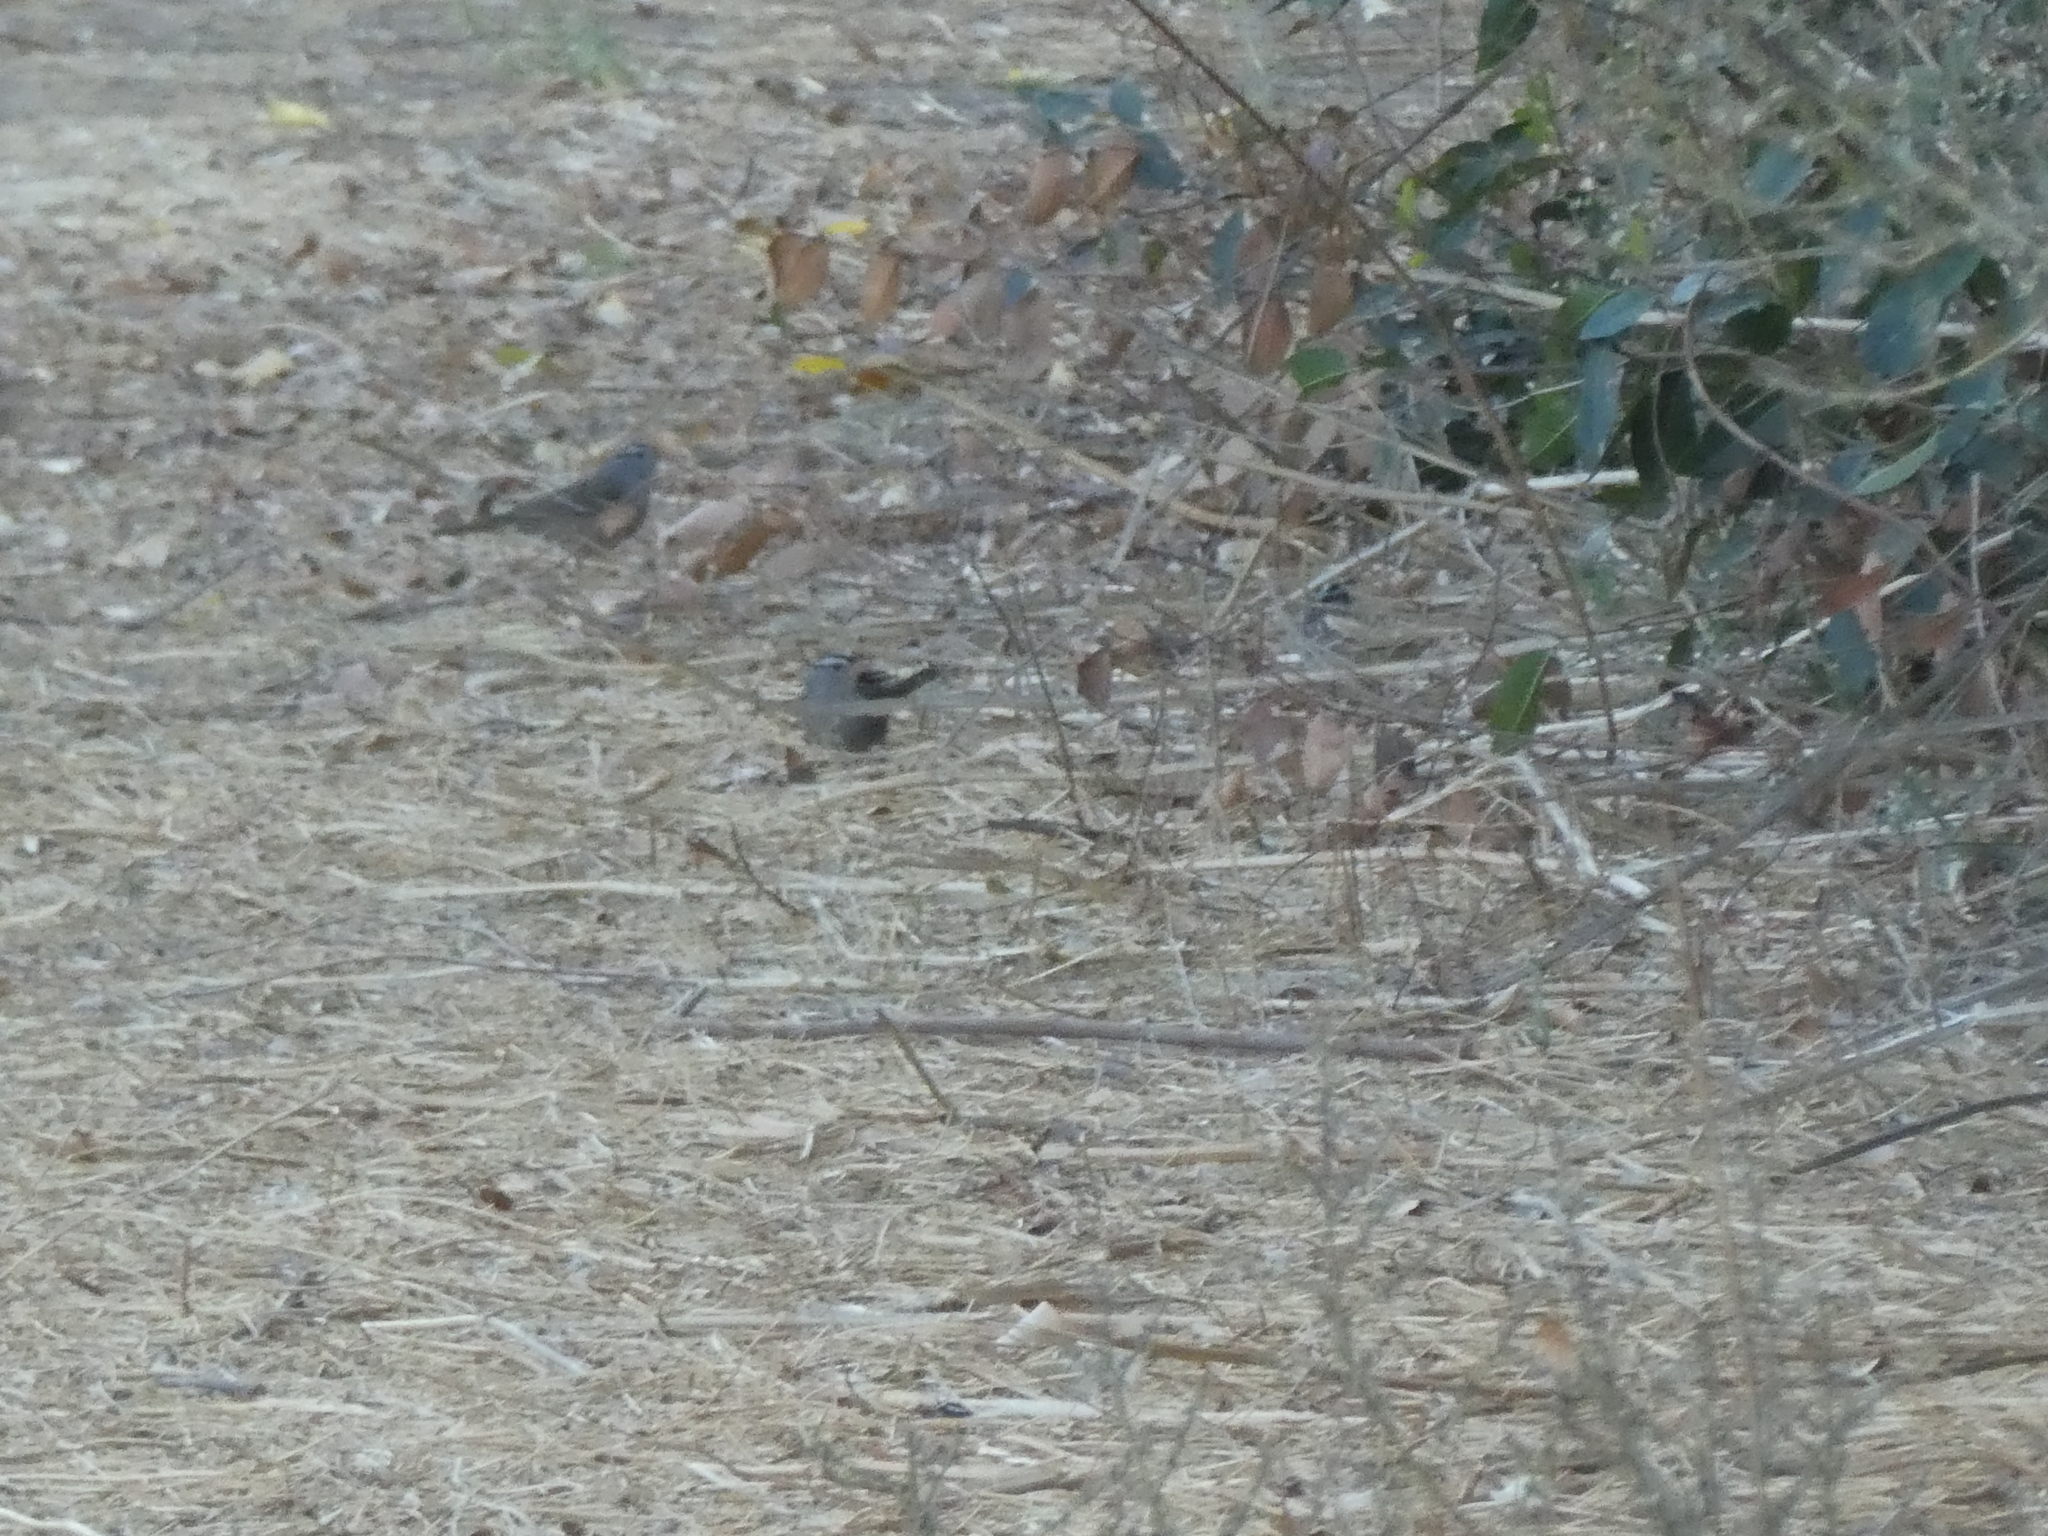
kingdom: Animalia
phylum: Chordata
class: Aves
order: Passeriformes
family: Passerellidae
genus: Zonotrichia
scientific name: Zonotrichia leucophrys
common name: White-crowned sparrow
